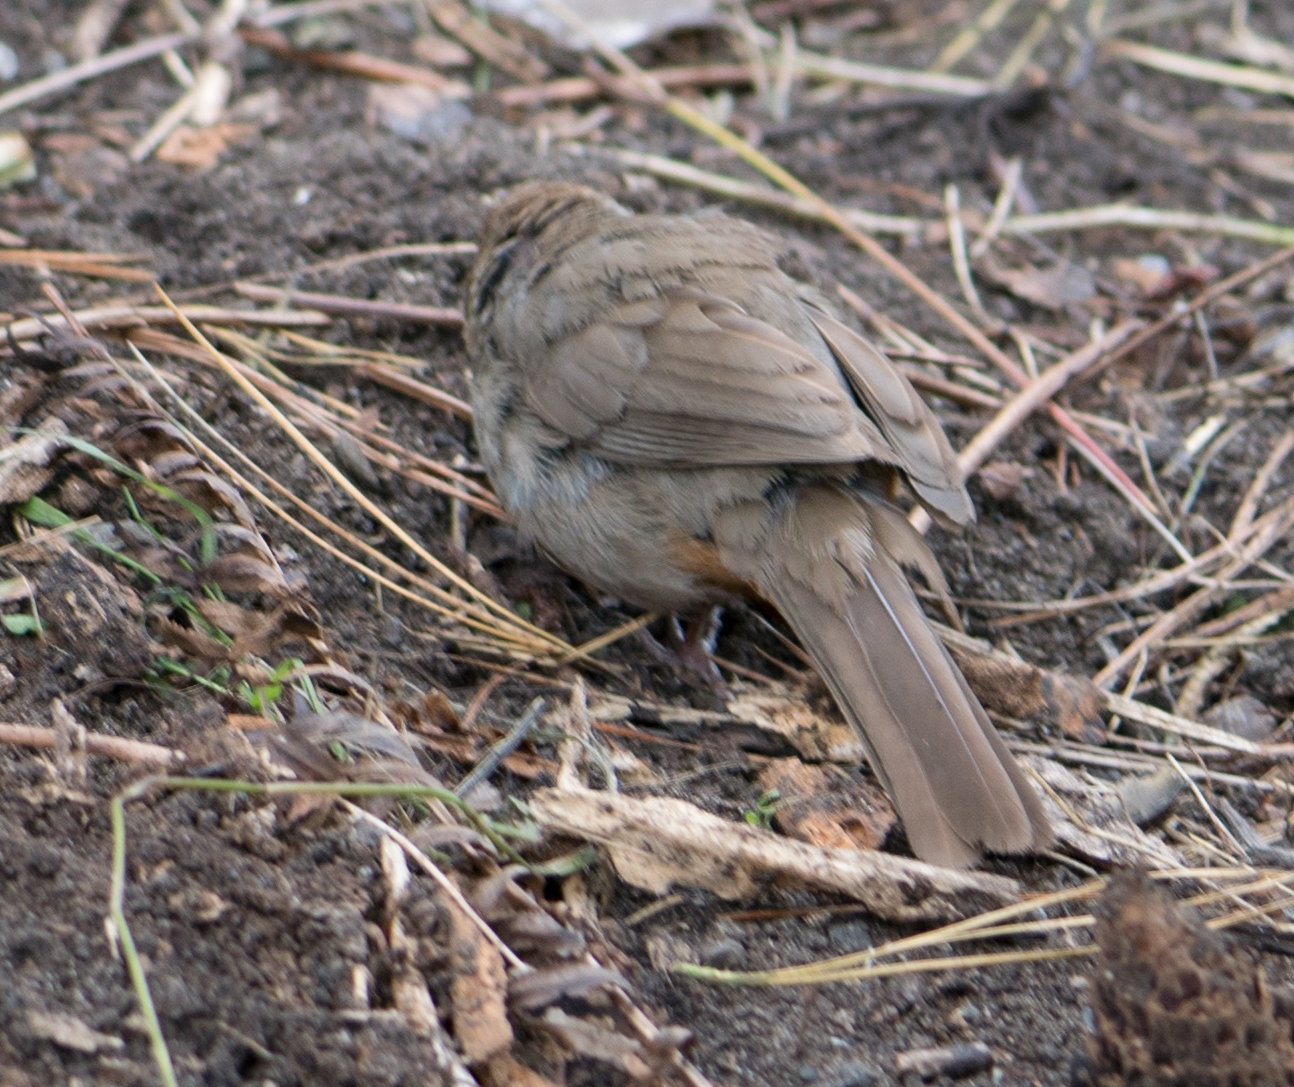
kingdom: Animalia
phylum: Chordata
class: Aves
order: Passeriformes
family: Passerellidae
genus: Melozone
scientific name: Melozone crissalis
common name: California towhee
